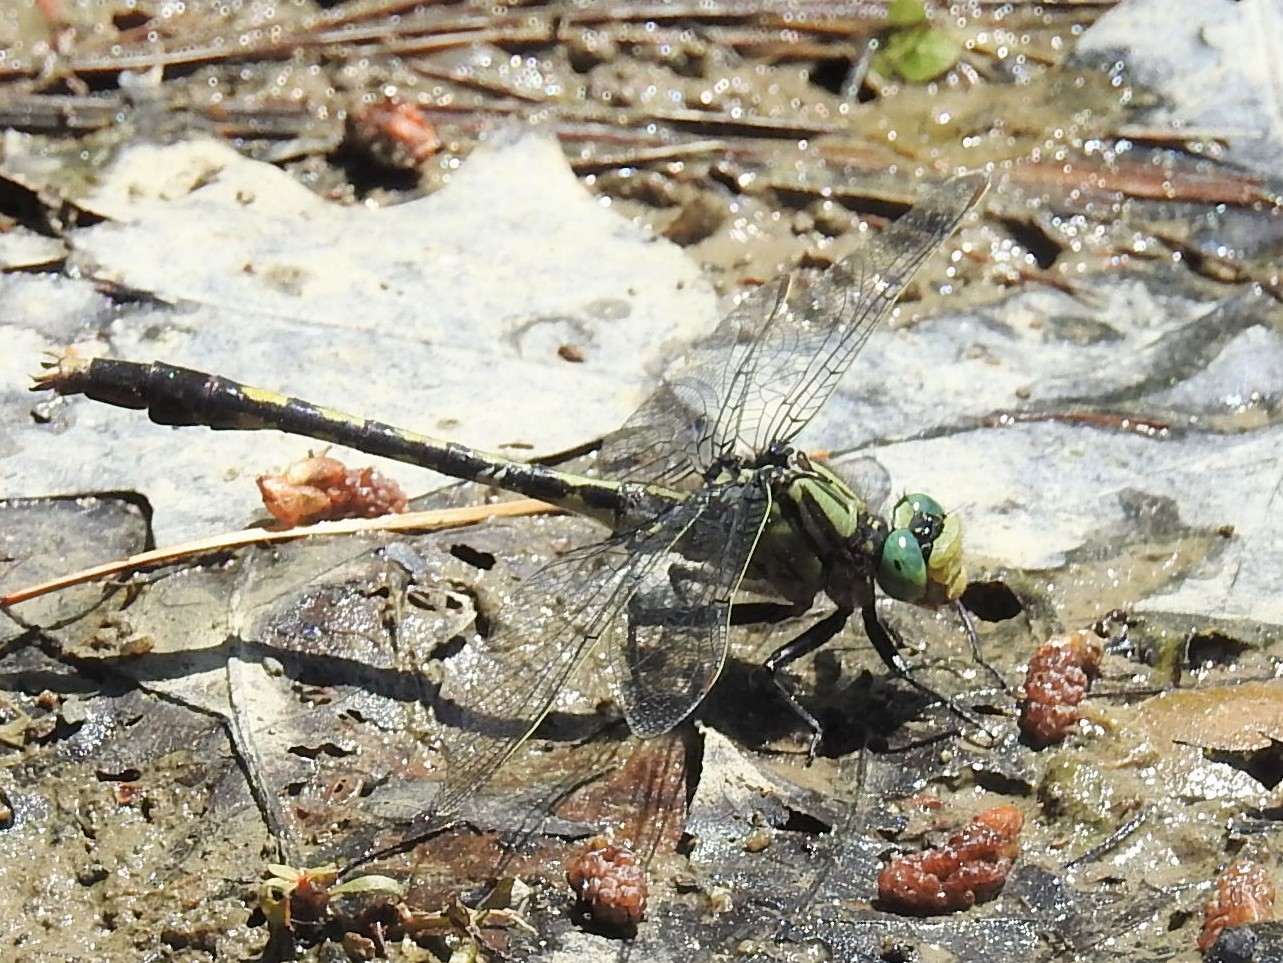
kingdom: Animalia
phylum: Arthropoda
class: Insecta
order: Odonata
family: Gomphidae
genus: Arigomphus
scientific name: Arigomphus villosipes
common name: Unicorn clubtail
